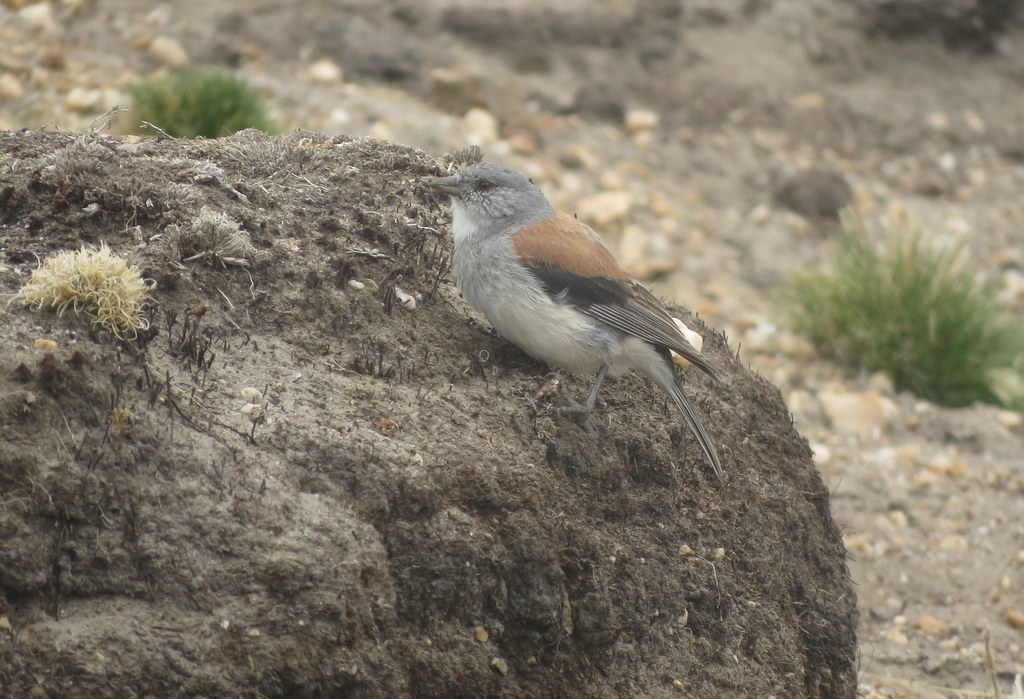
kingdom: Animalia
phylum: Chordata
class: Aves
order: Passeriformes
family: Thraupidae
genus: Idiopsar
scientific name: Idiopsar dorsalis
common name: Red-backed sierra finch
